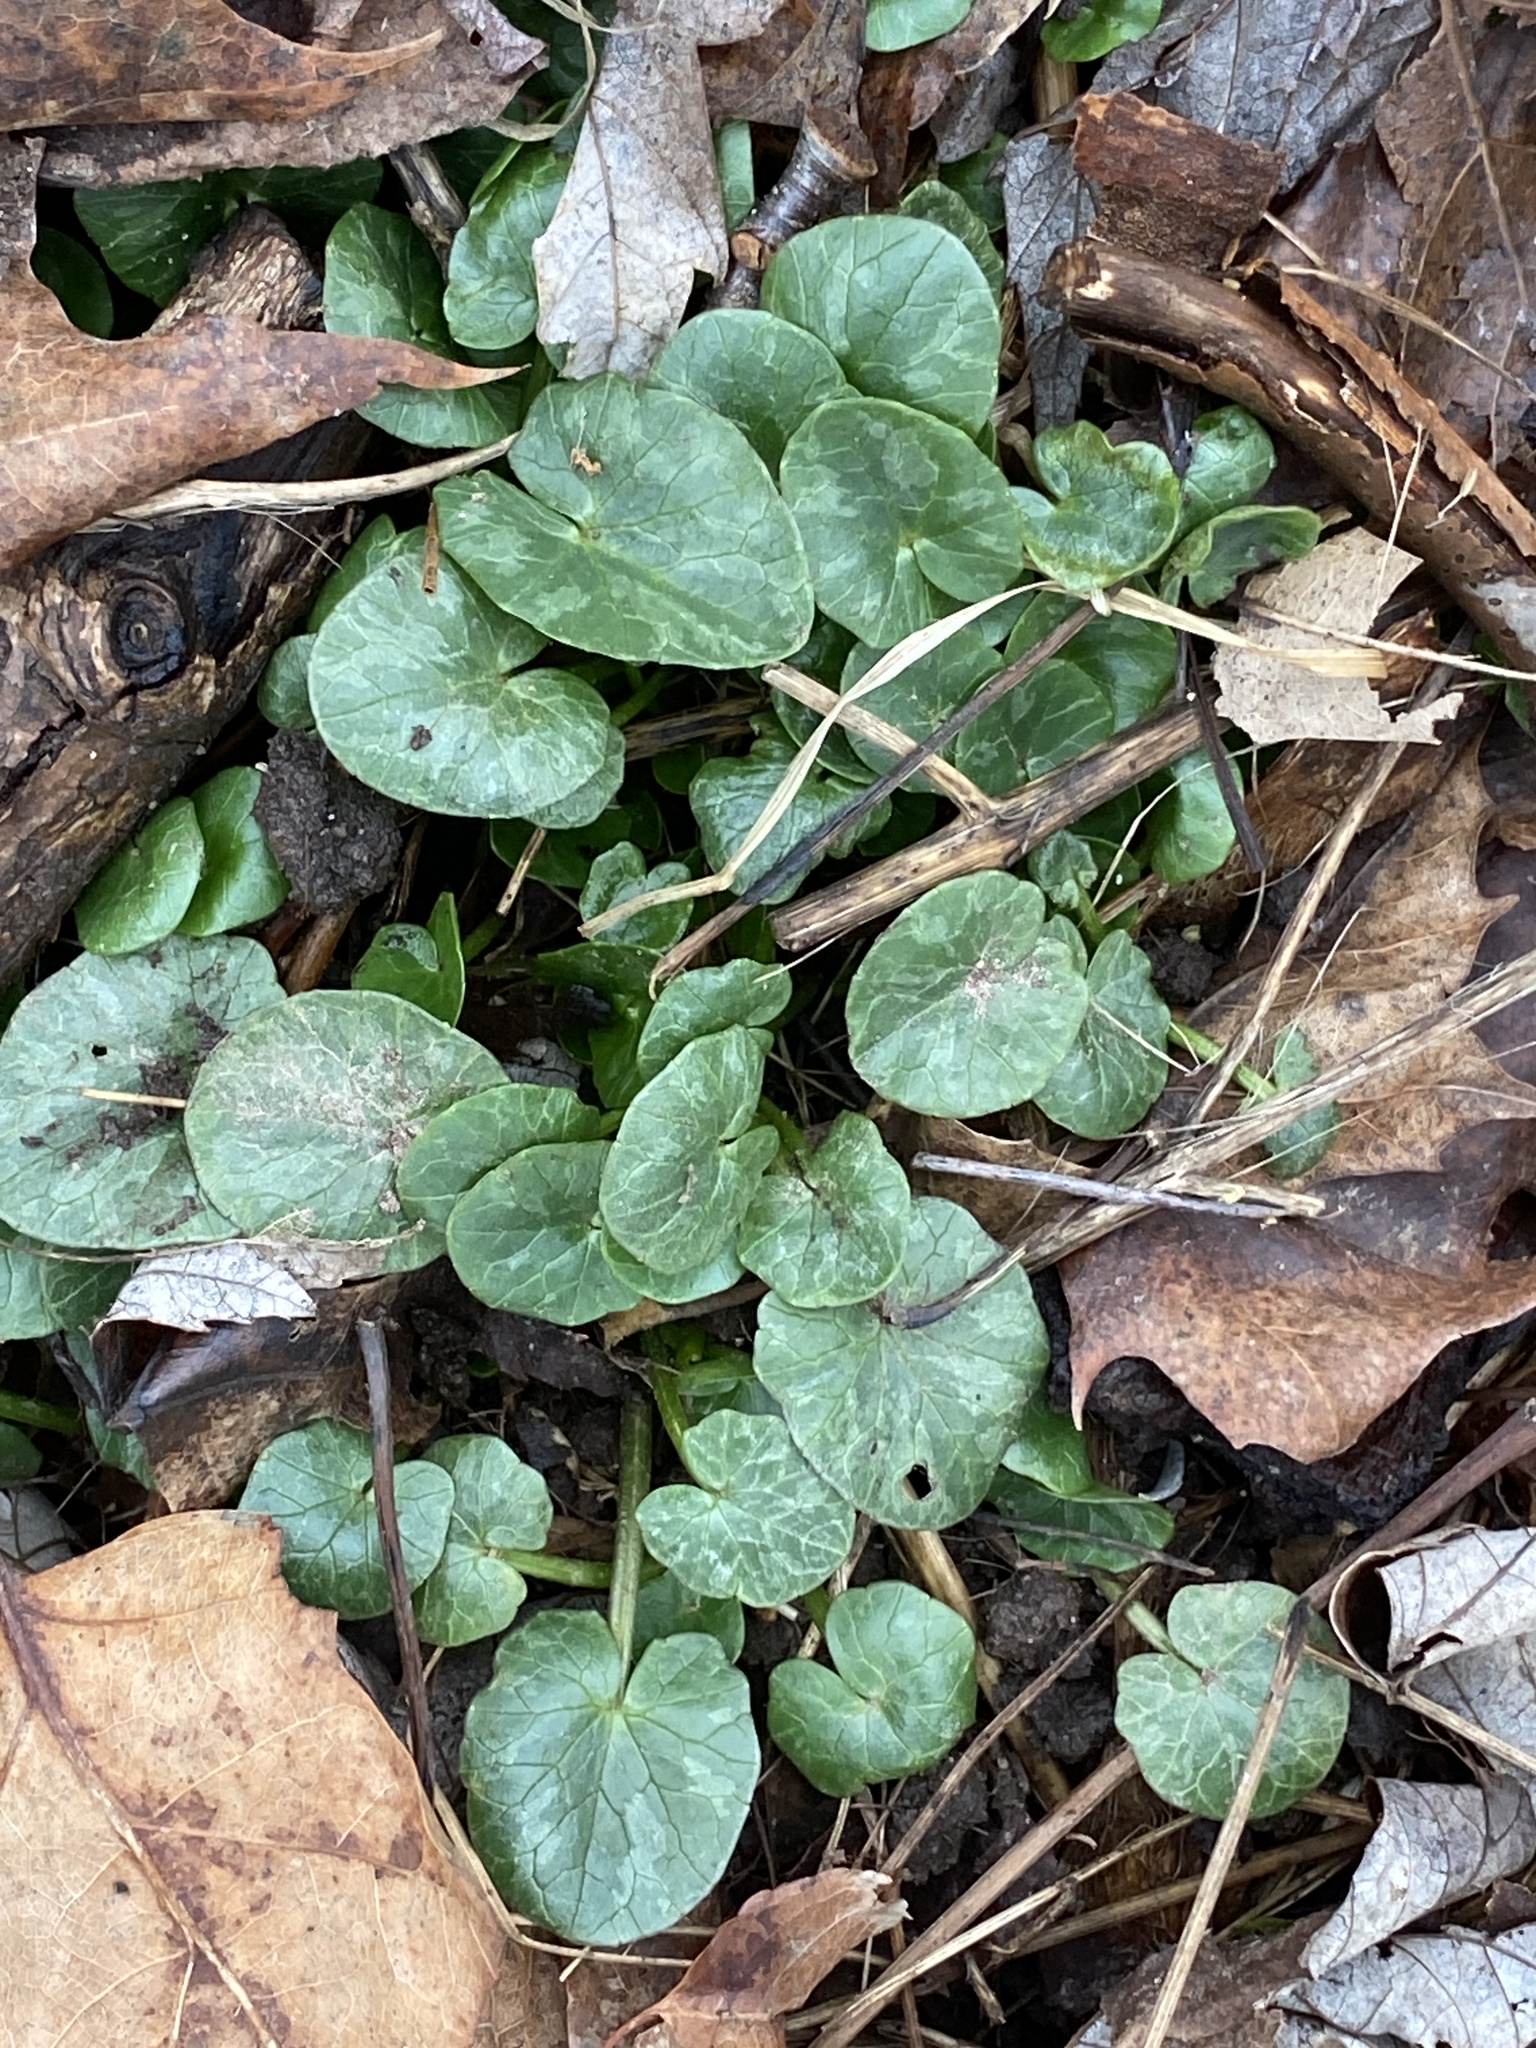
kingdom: Plantae
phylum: Tracheophyta
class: Magnoliopsida
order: Ranunculales
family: Ranunculaceae
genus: Ficaria
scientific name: Ficaria verna
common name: Lesser celandine
